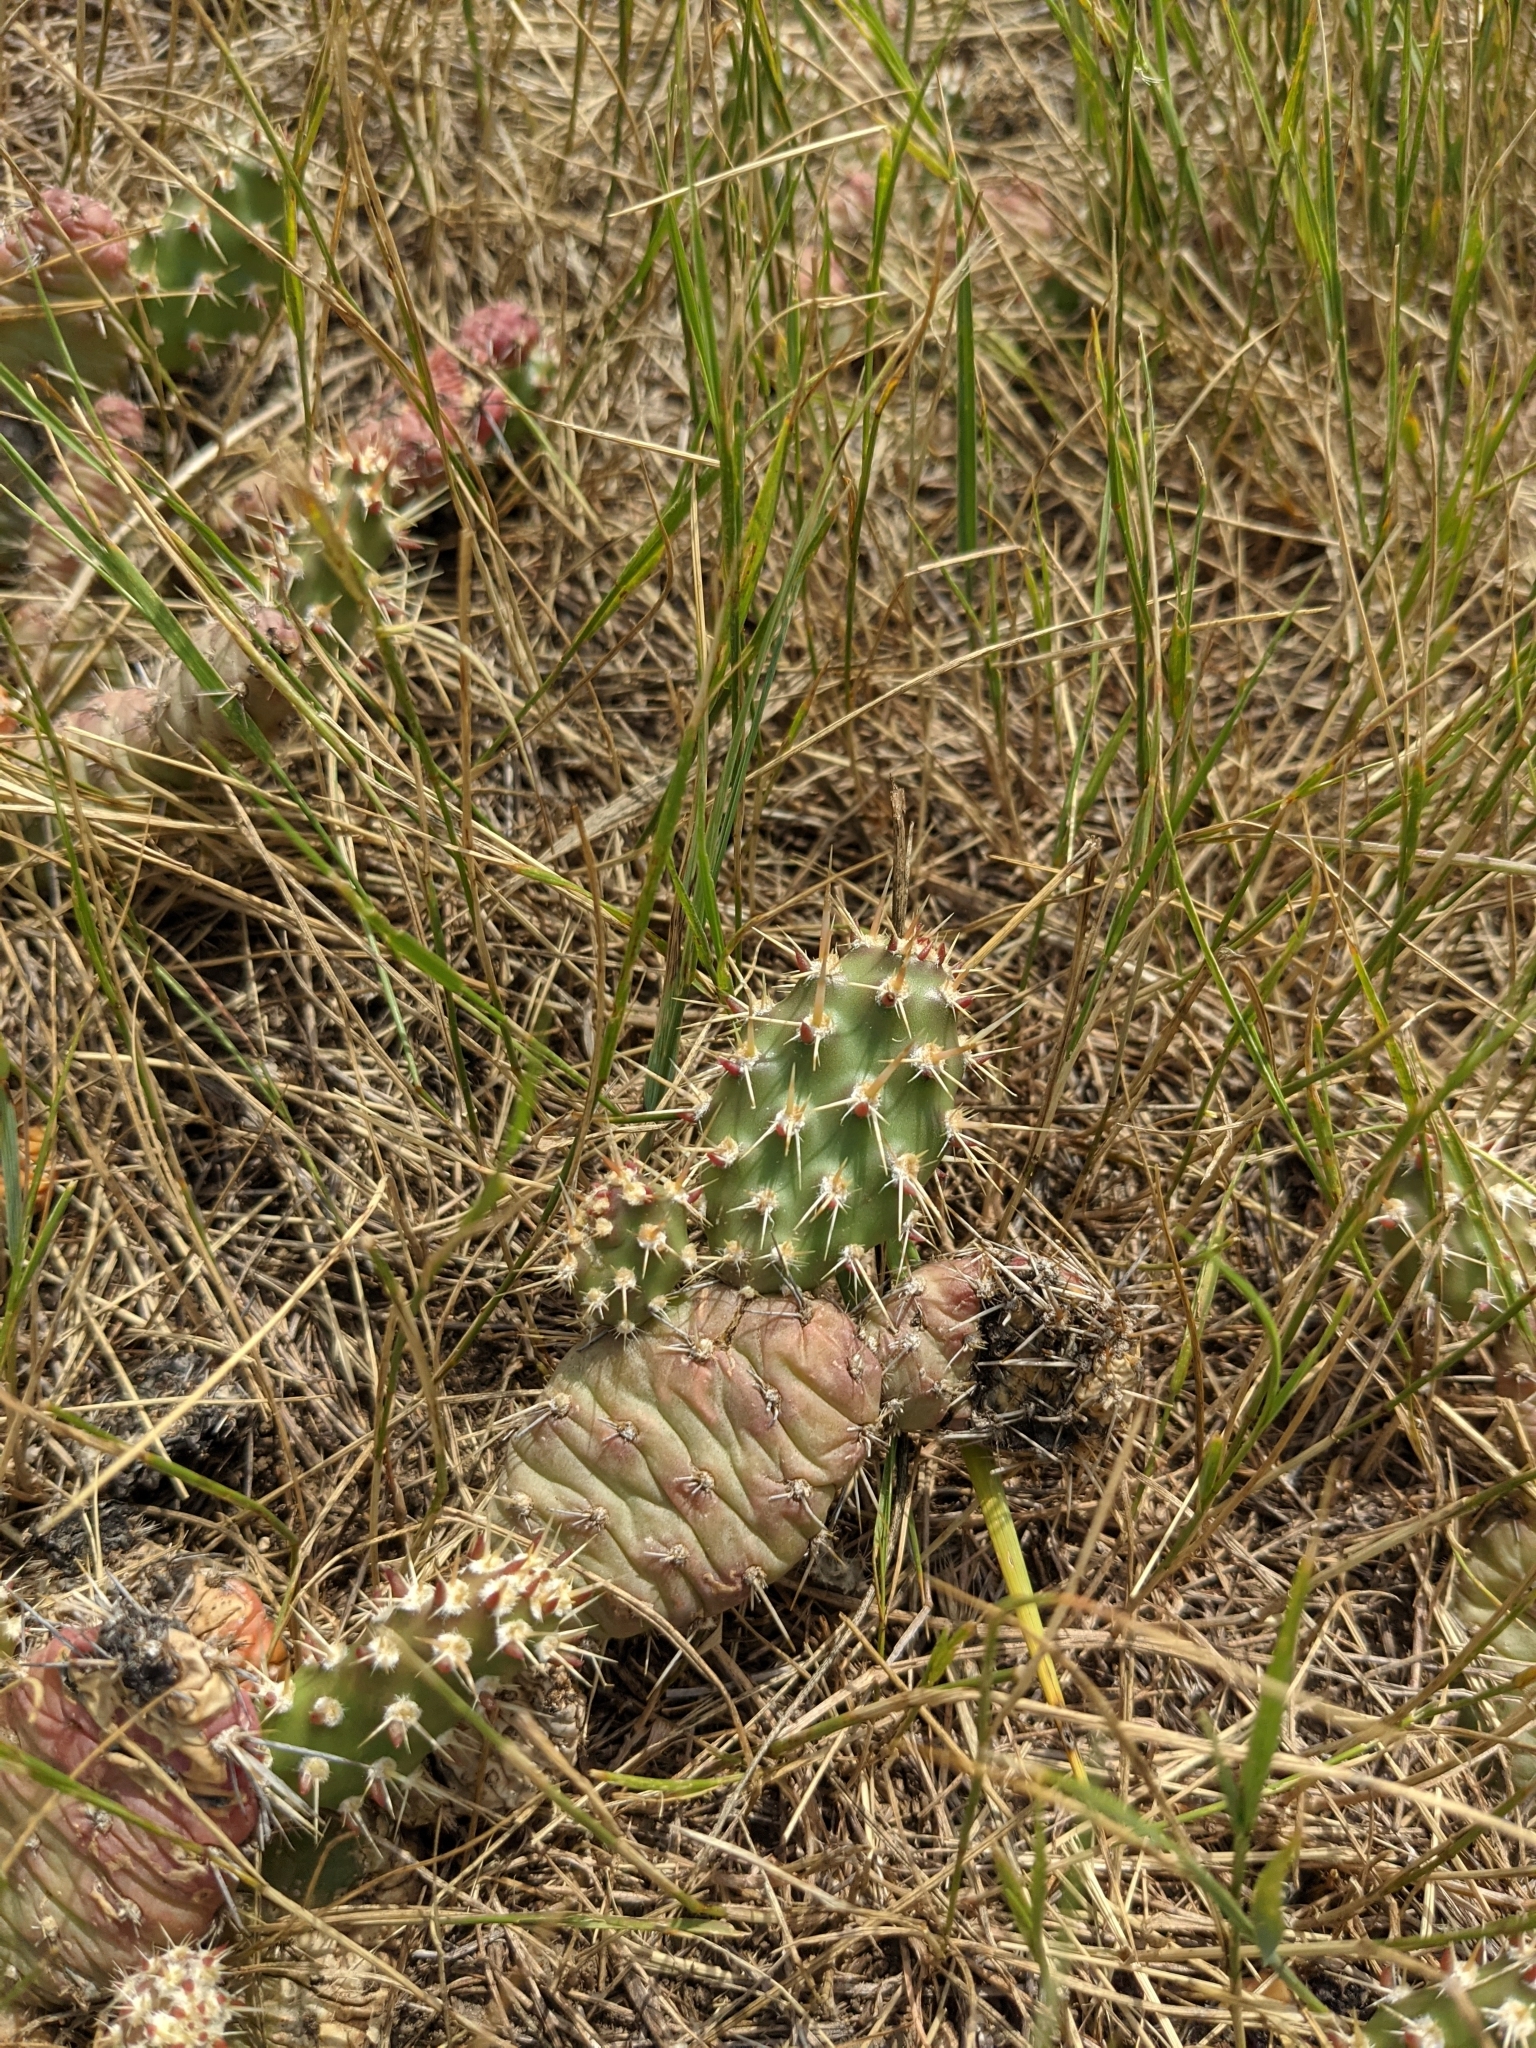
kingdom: Plantae
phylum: Tracheophyta
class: Magnoliopsida
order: Caryophyllales
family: Cactaceae
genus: Opuntia
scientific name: Opuntia fragilis
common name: Brittle cactus
